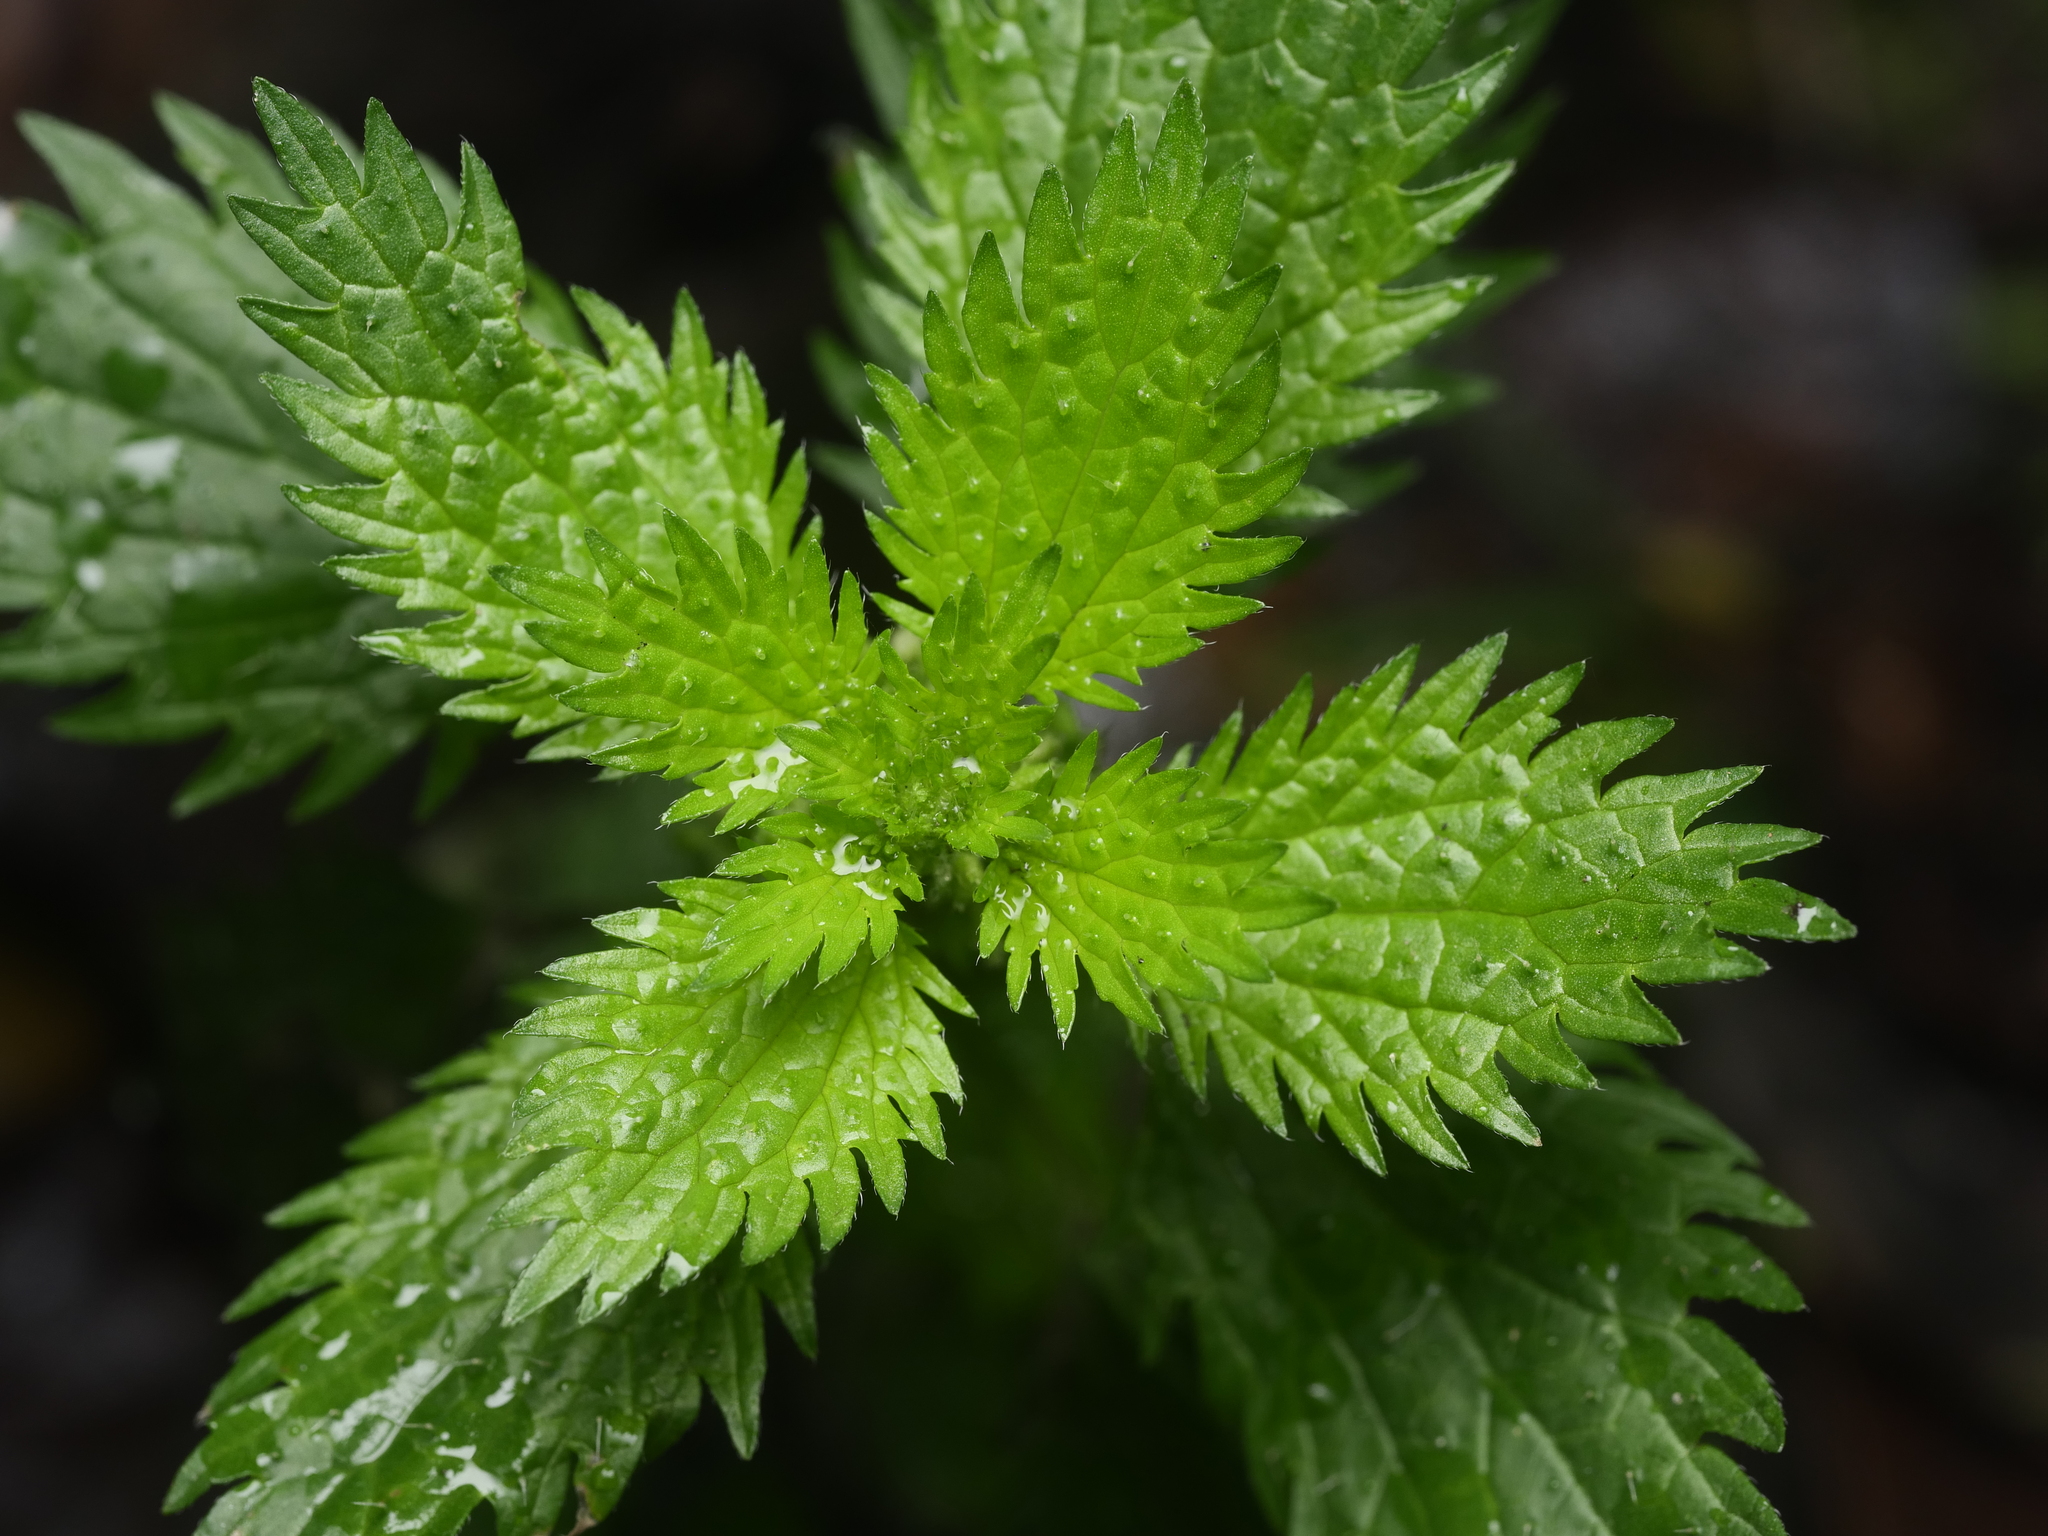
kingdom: Plantae
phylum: Tracheophyta
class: Magnoliopsida
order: Rosales
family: Urticaceae
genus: Urtica
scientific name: Urtica urens
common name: Dwarf nettle
